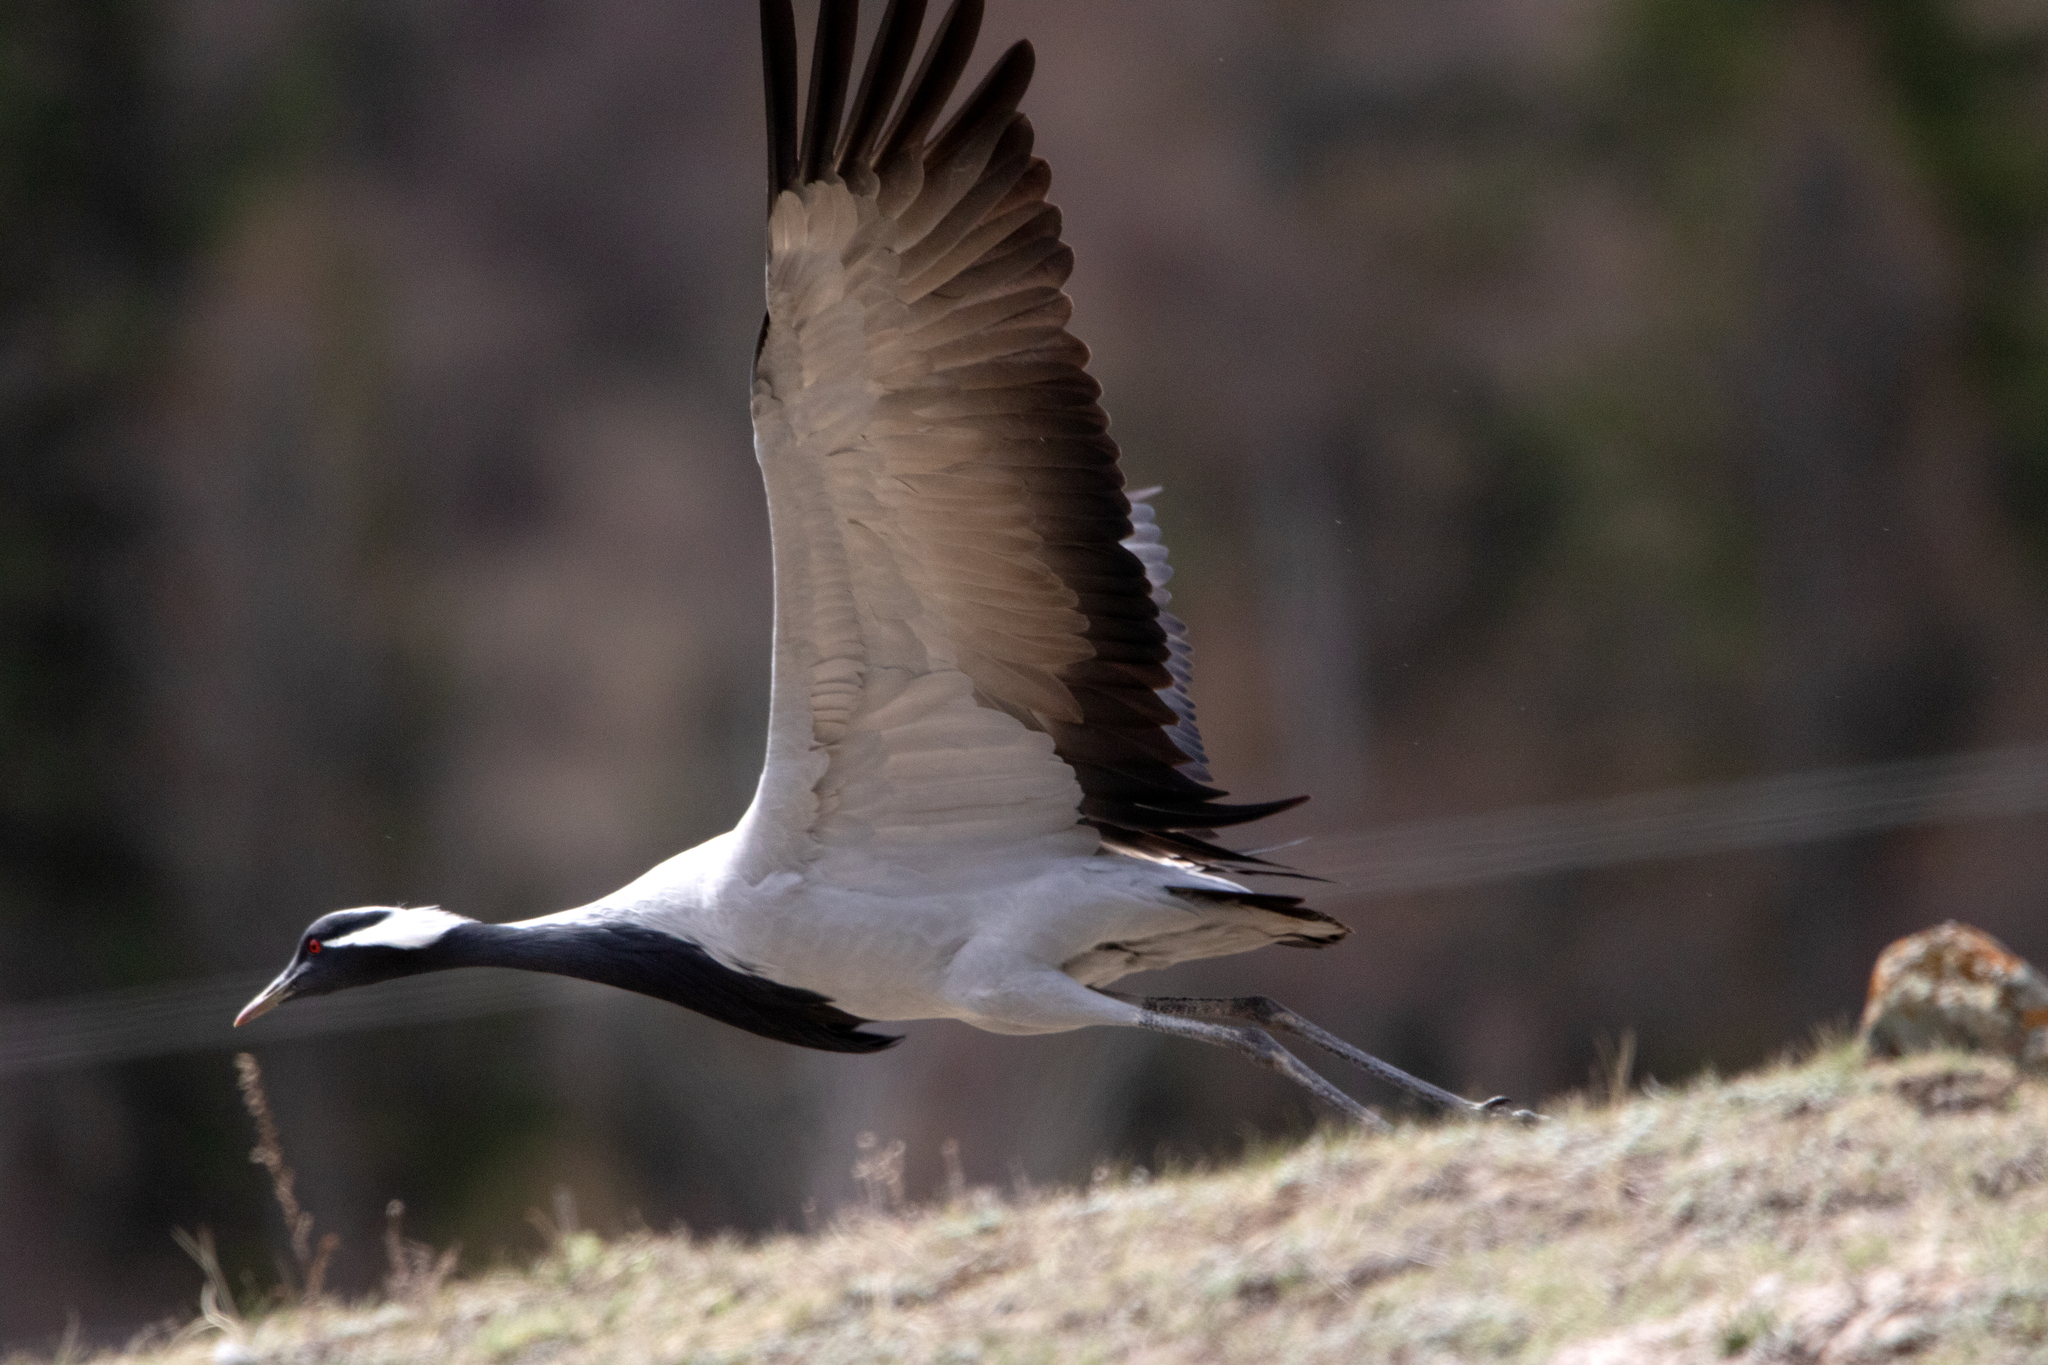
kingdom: Animalia
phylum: Chordata
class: Aves
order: Gruiformes
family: Gruidae
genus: Anthropoides
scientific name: Anthropoides virgo
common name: Demoiselle crane
